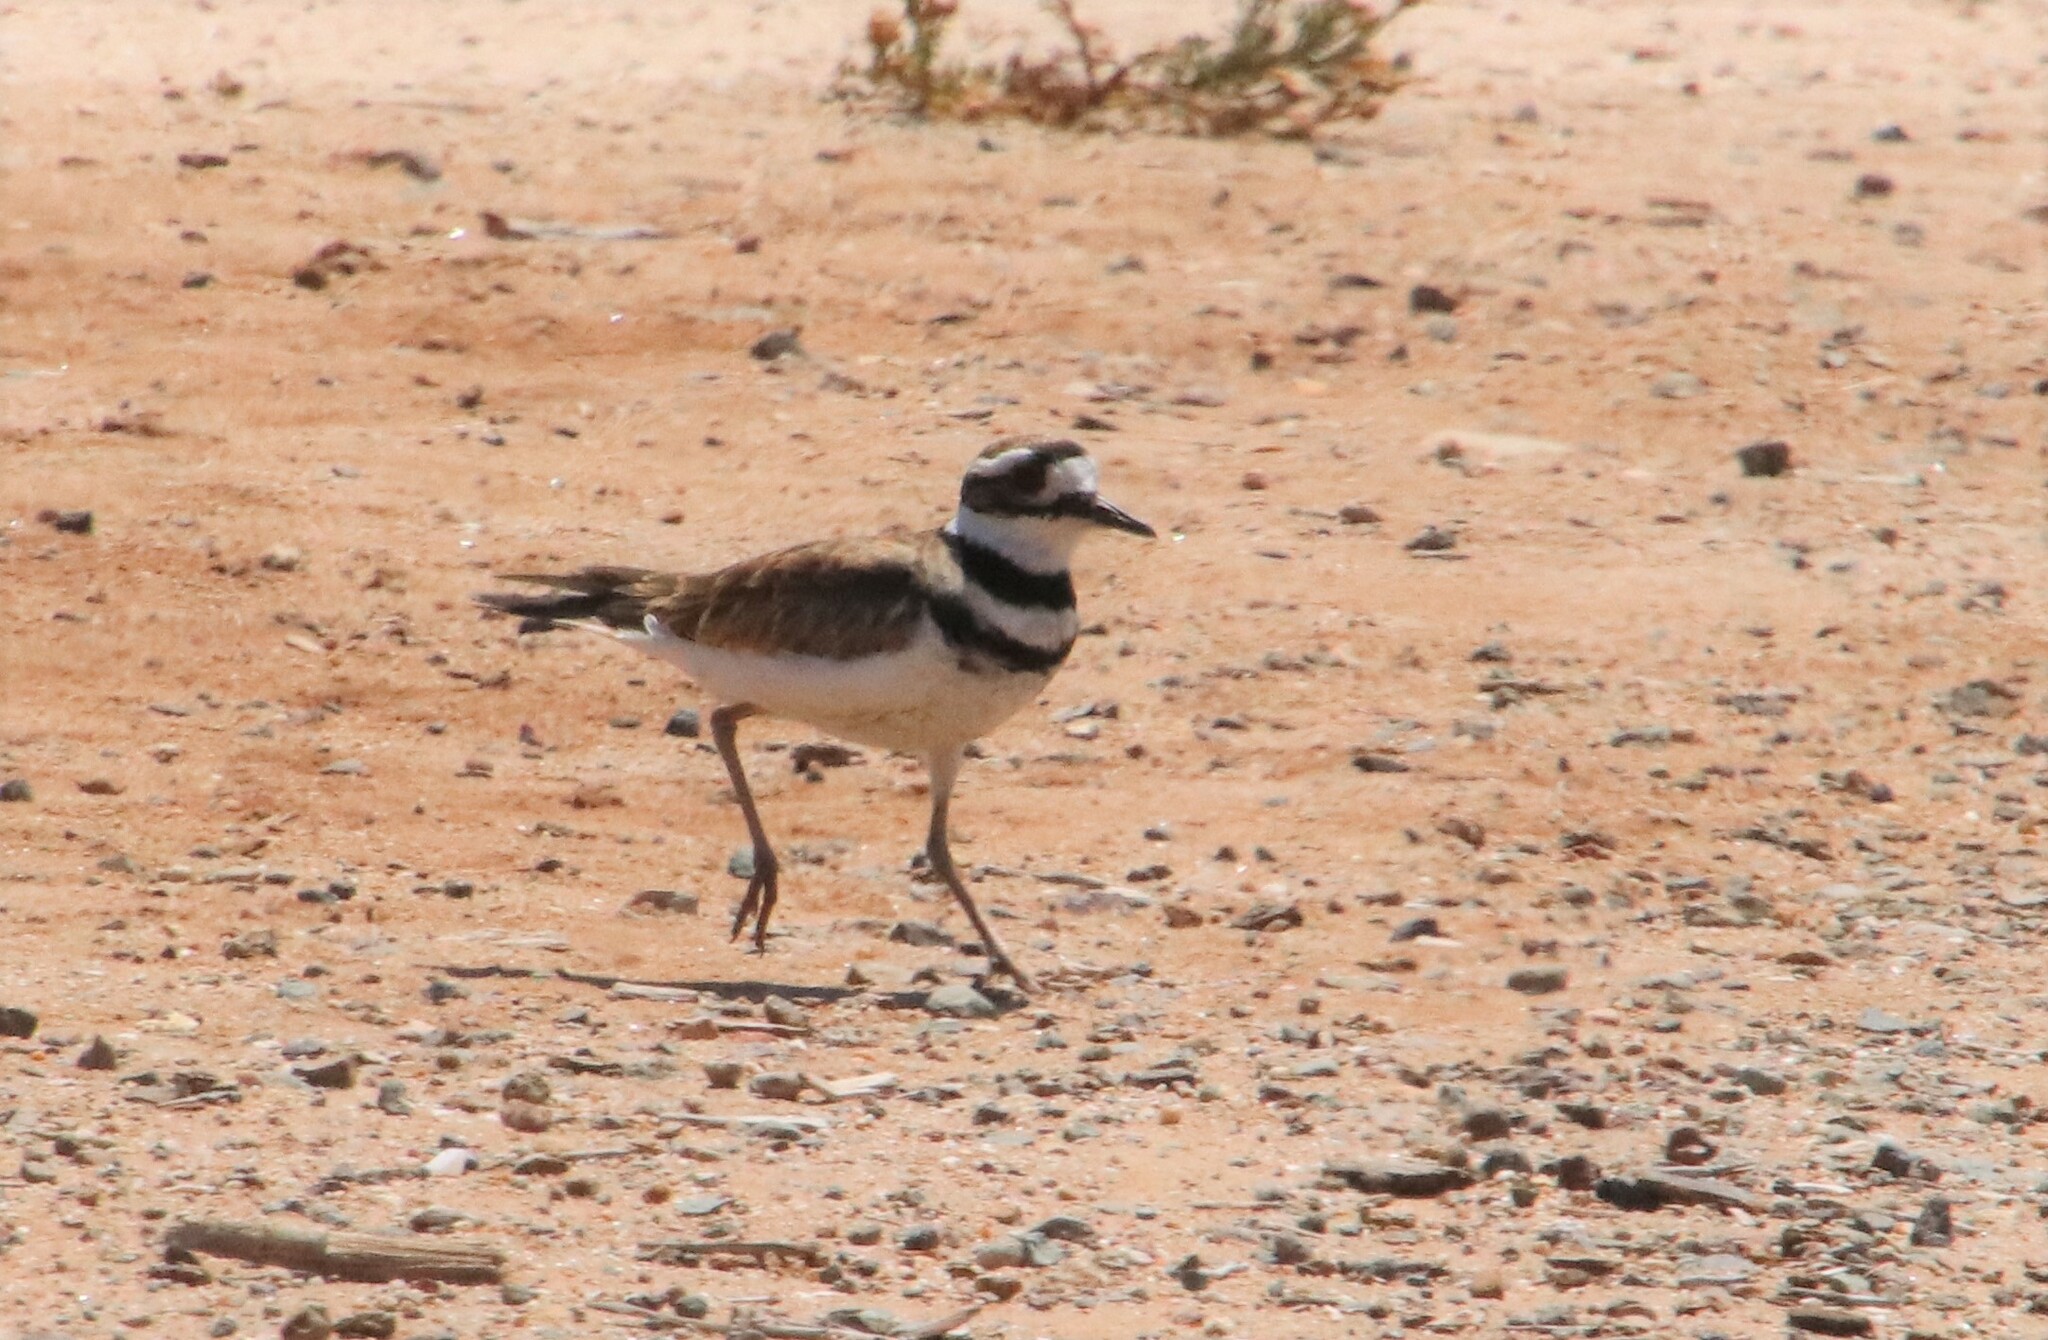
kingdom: Animalia
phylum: Chordata
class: Aves
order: Charadriiformes
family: Charadriidae
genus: Charadrius
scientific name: Charadrius vociferus
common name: Killdeer
